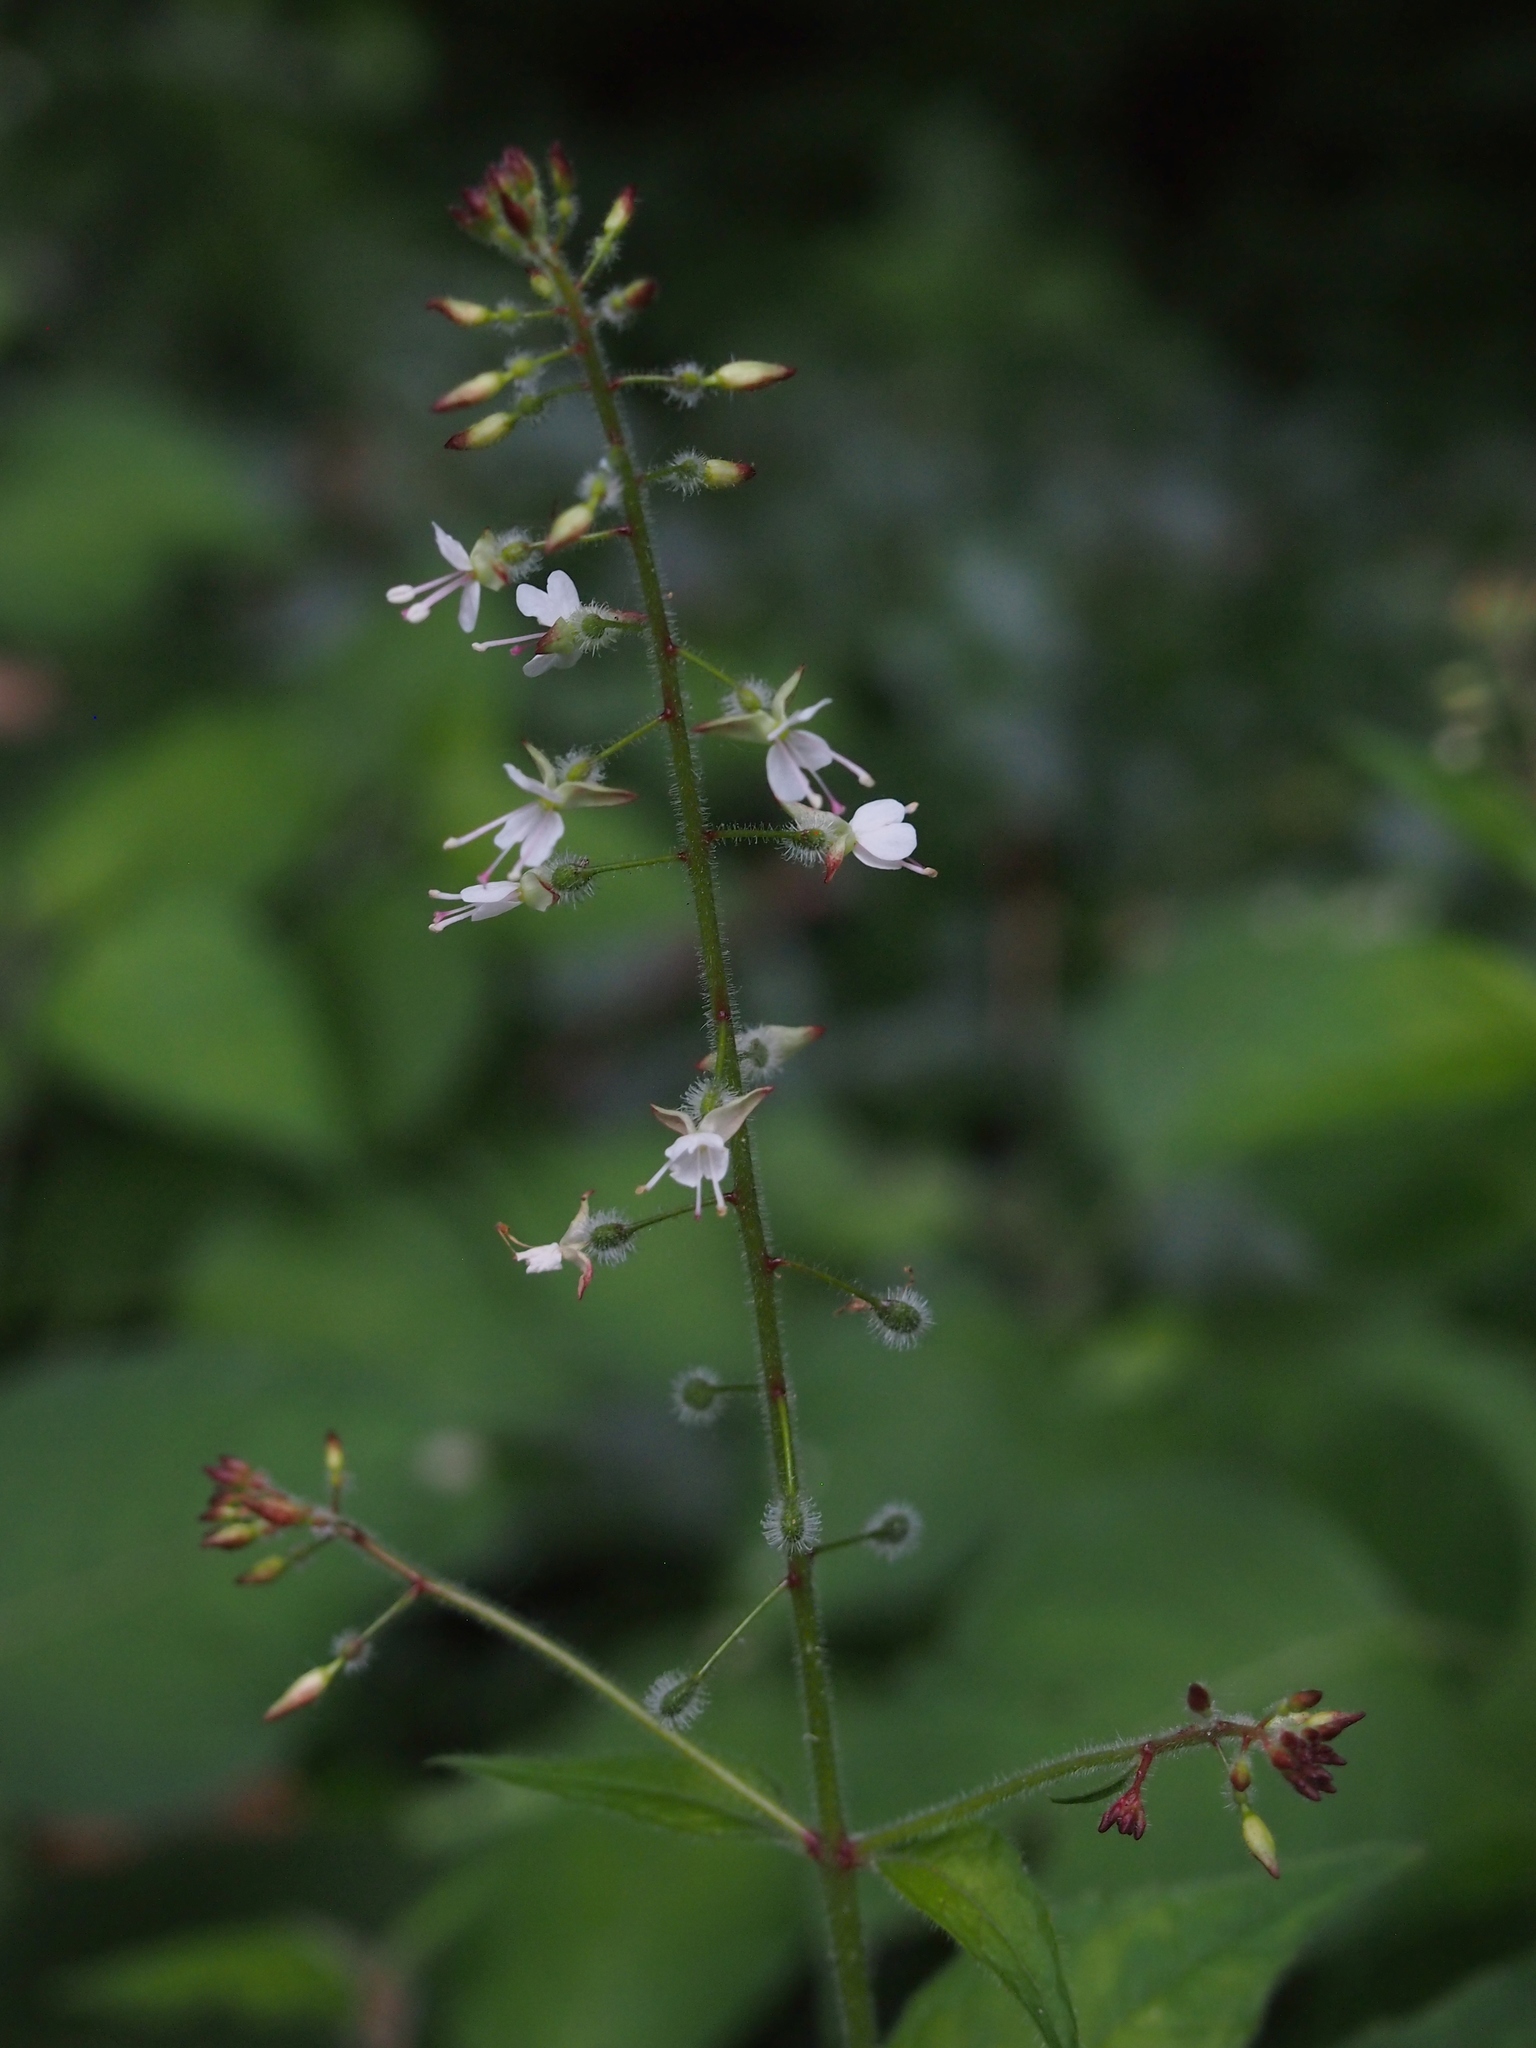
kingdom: Plantae
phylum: Tracheophyta
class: Magnoliopsida
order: Myrtales
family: Onagraceae
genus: Circaea
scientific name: Circaea lutetiana
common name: Enchanter's-nightshade
